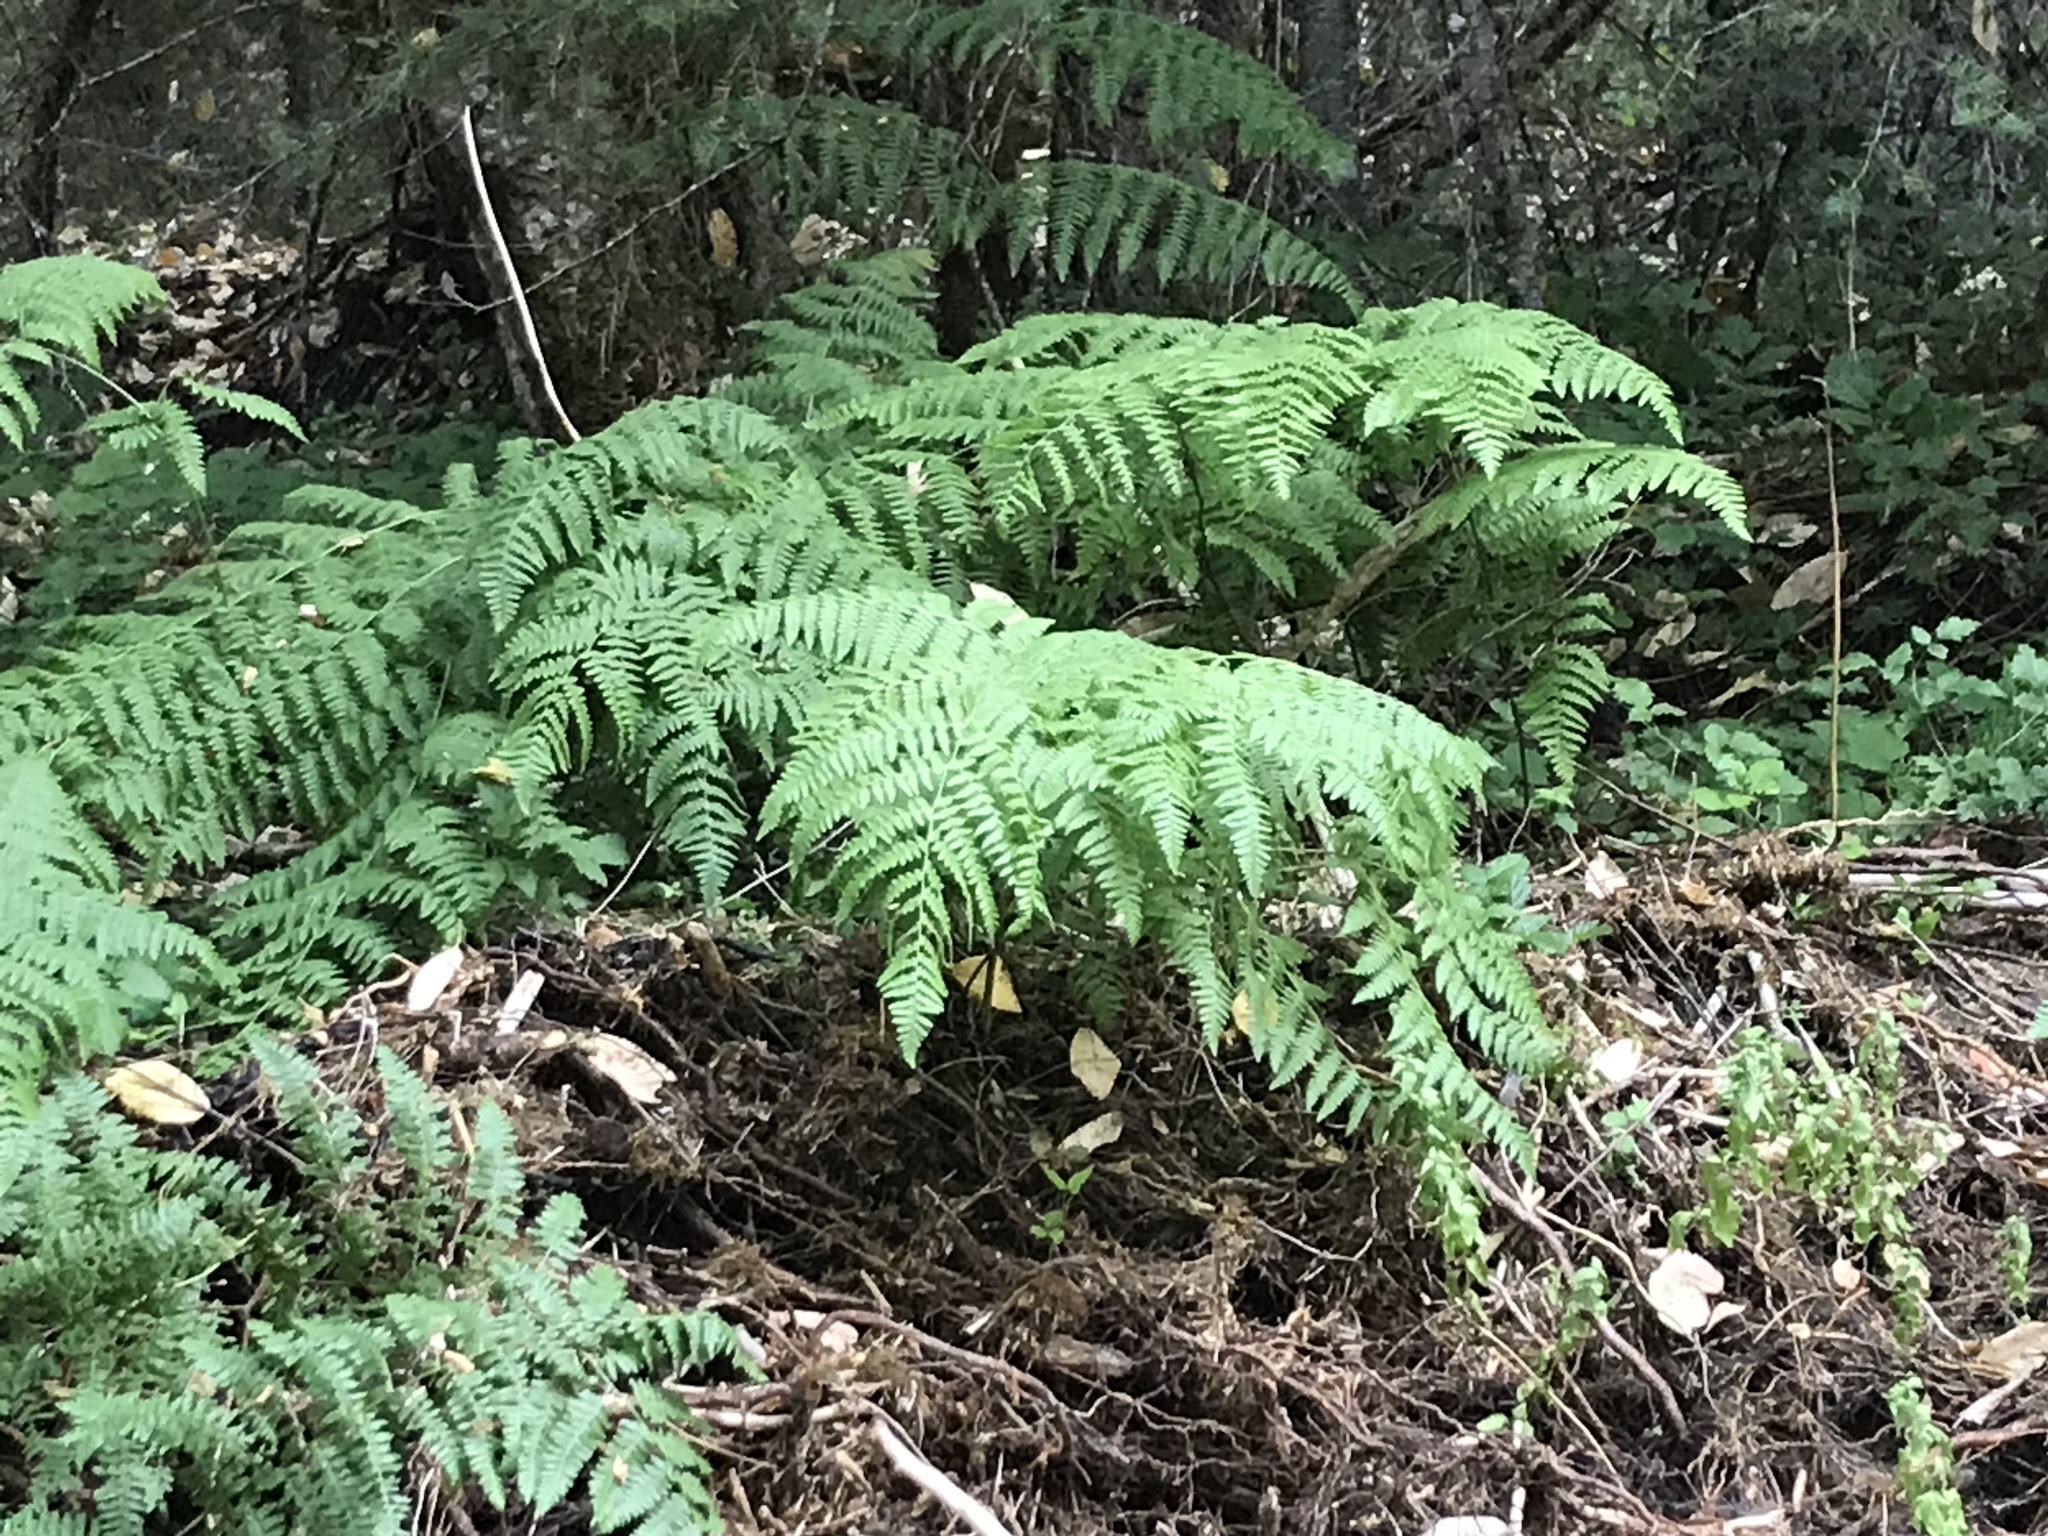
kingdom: Plantae
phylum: Tracheophyta
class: Polypodiopsida
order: Polypodiales
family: Dennstaedtiaceae
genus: Pteridium
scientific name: Pteridium aquilinum
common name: Bracken
